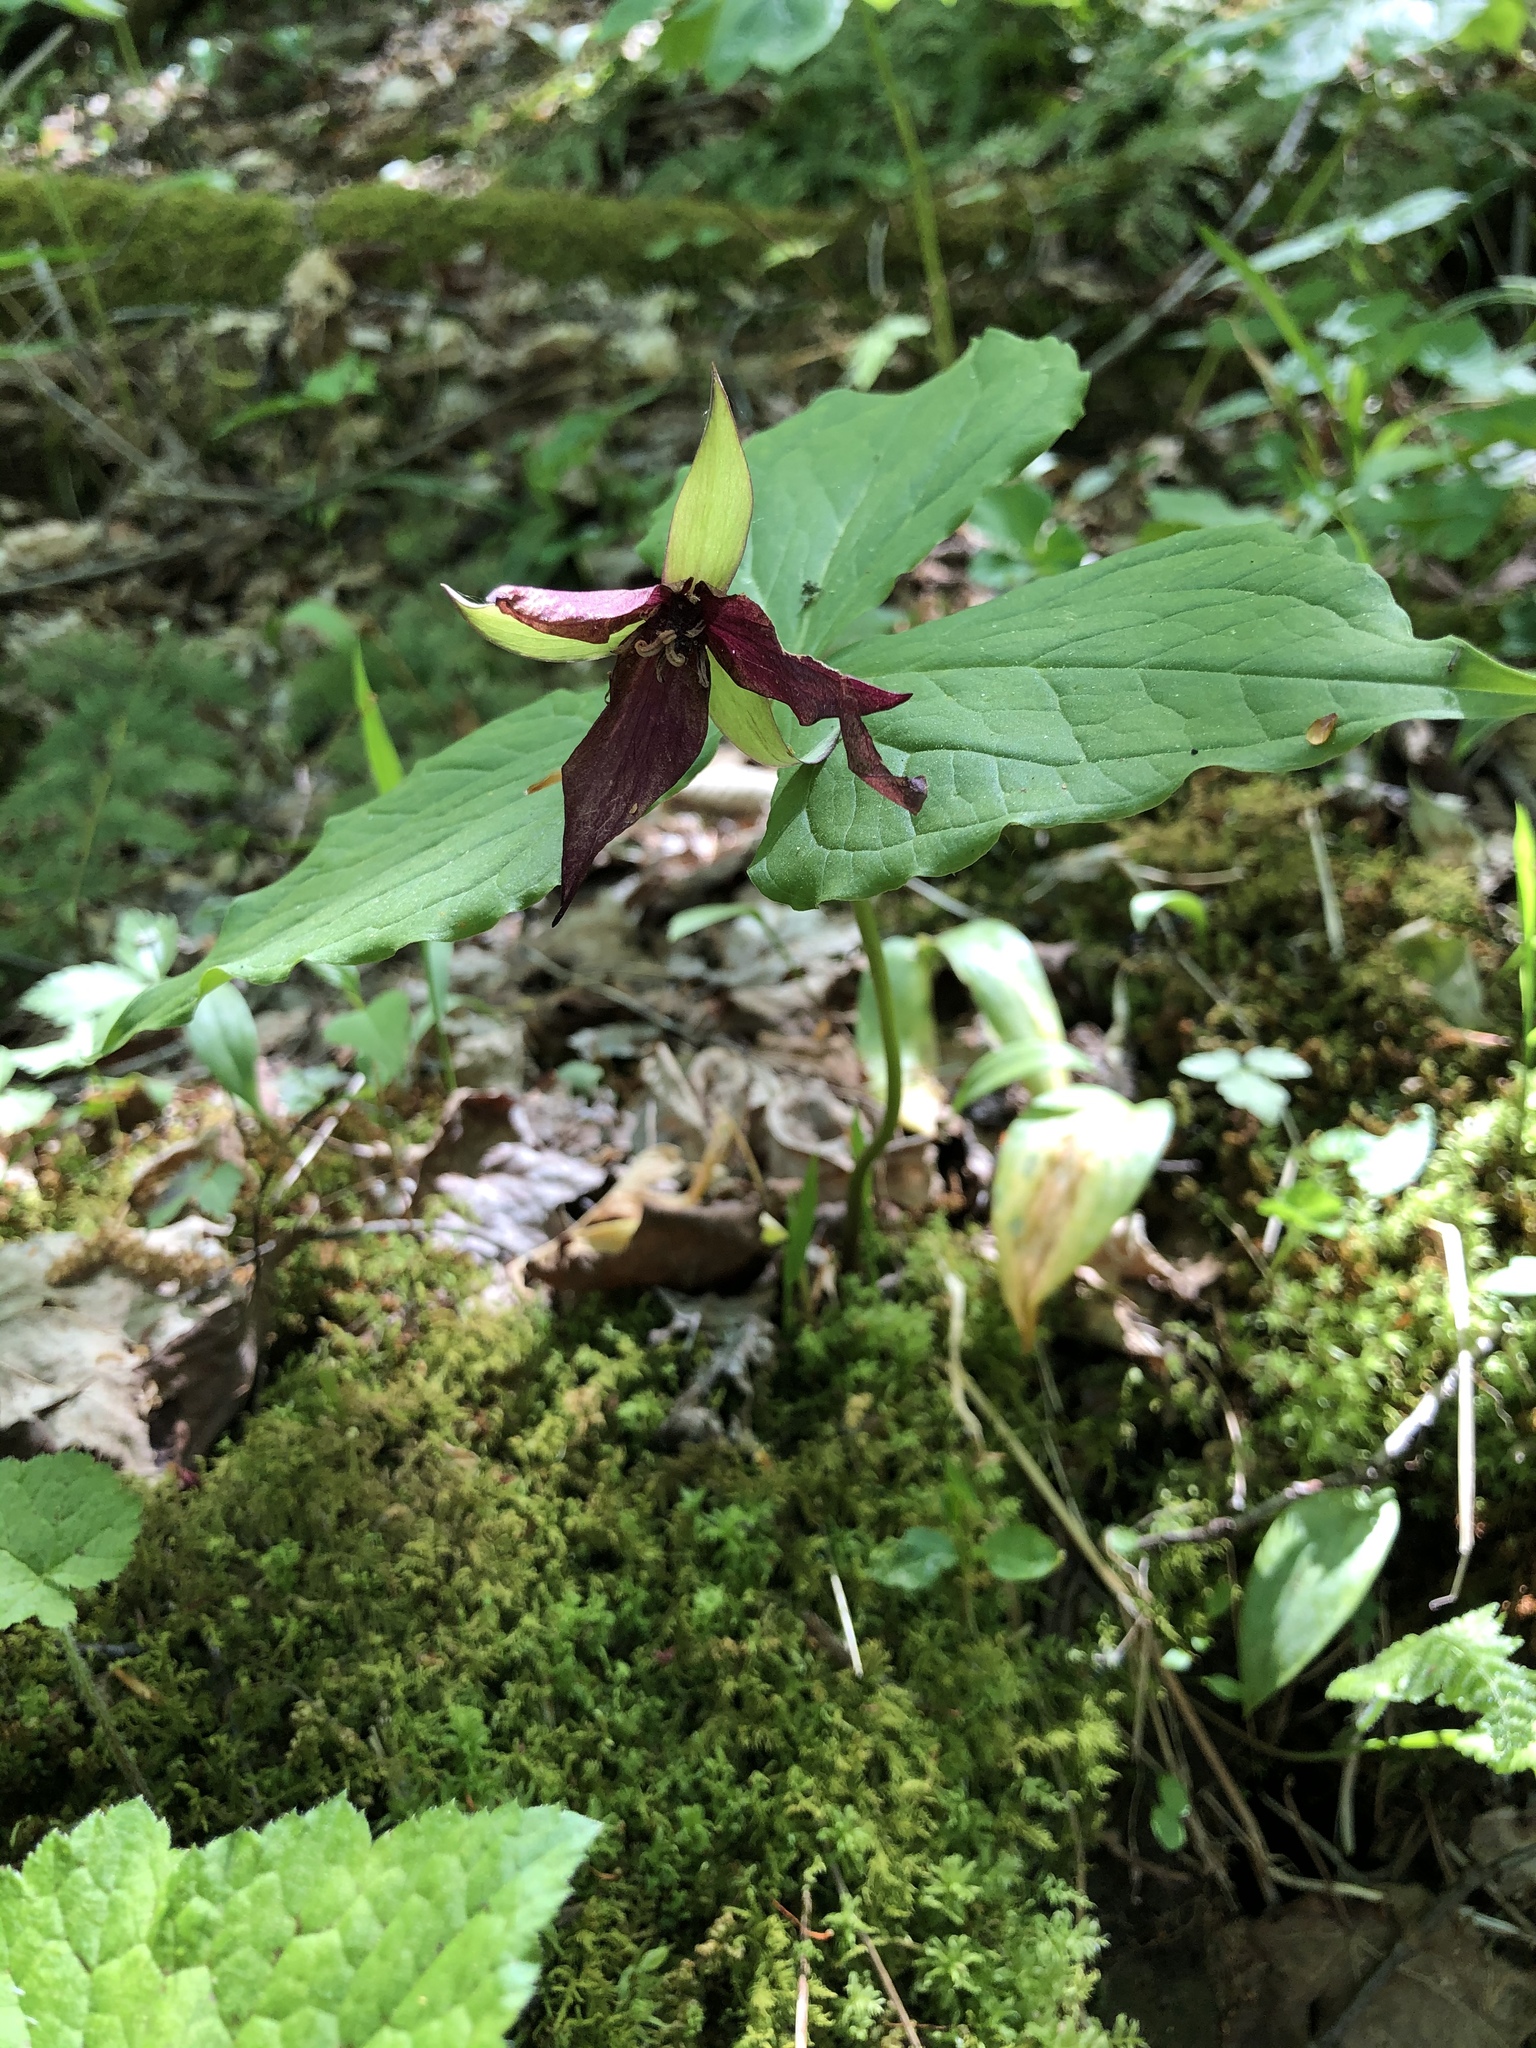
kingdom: Plantae
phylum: Tracheophyta
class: Liliopsida
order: Liliales
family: Melanthiaceae
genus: Trillium
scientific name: Trillium erectum
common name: Purple trillium
